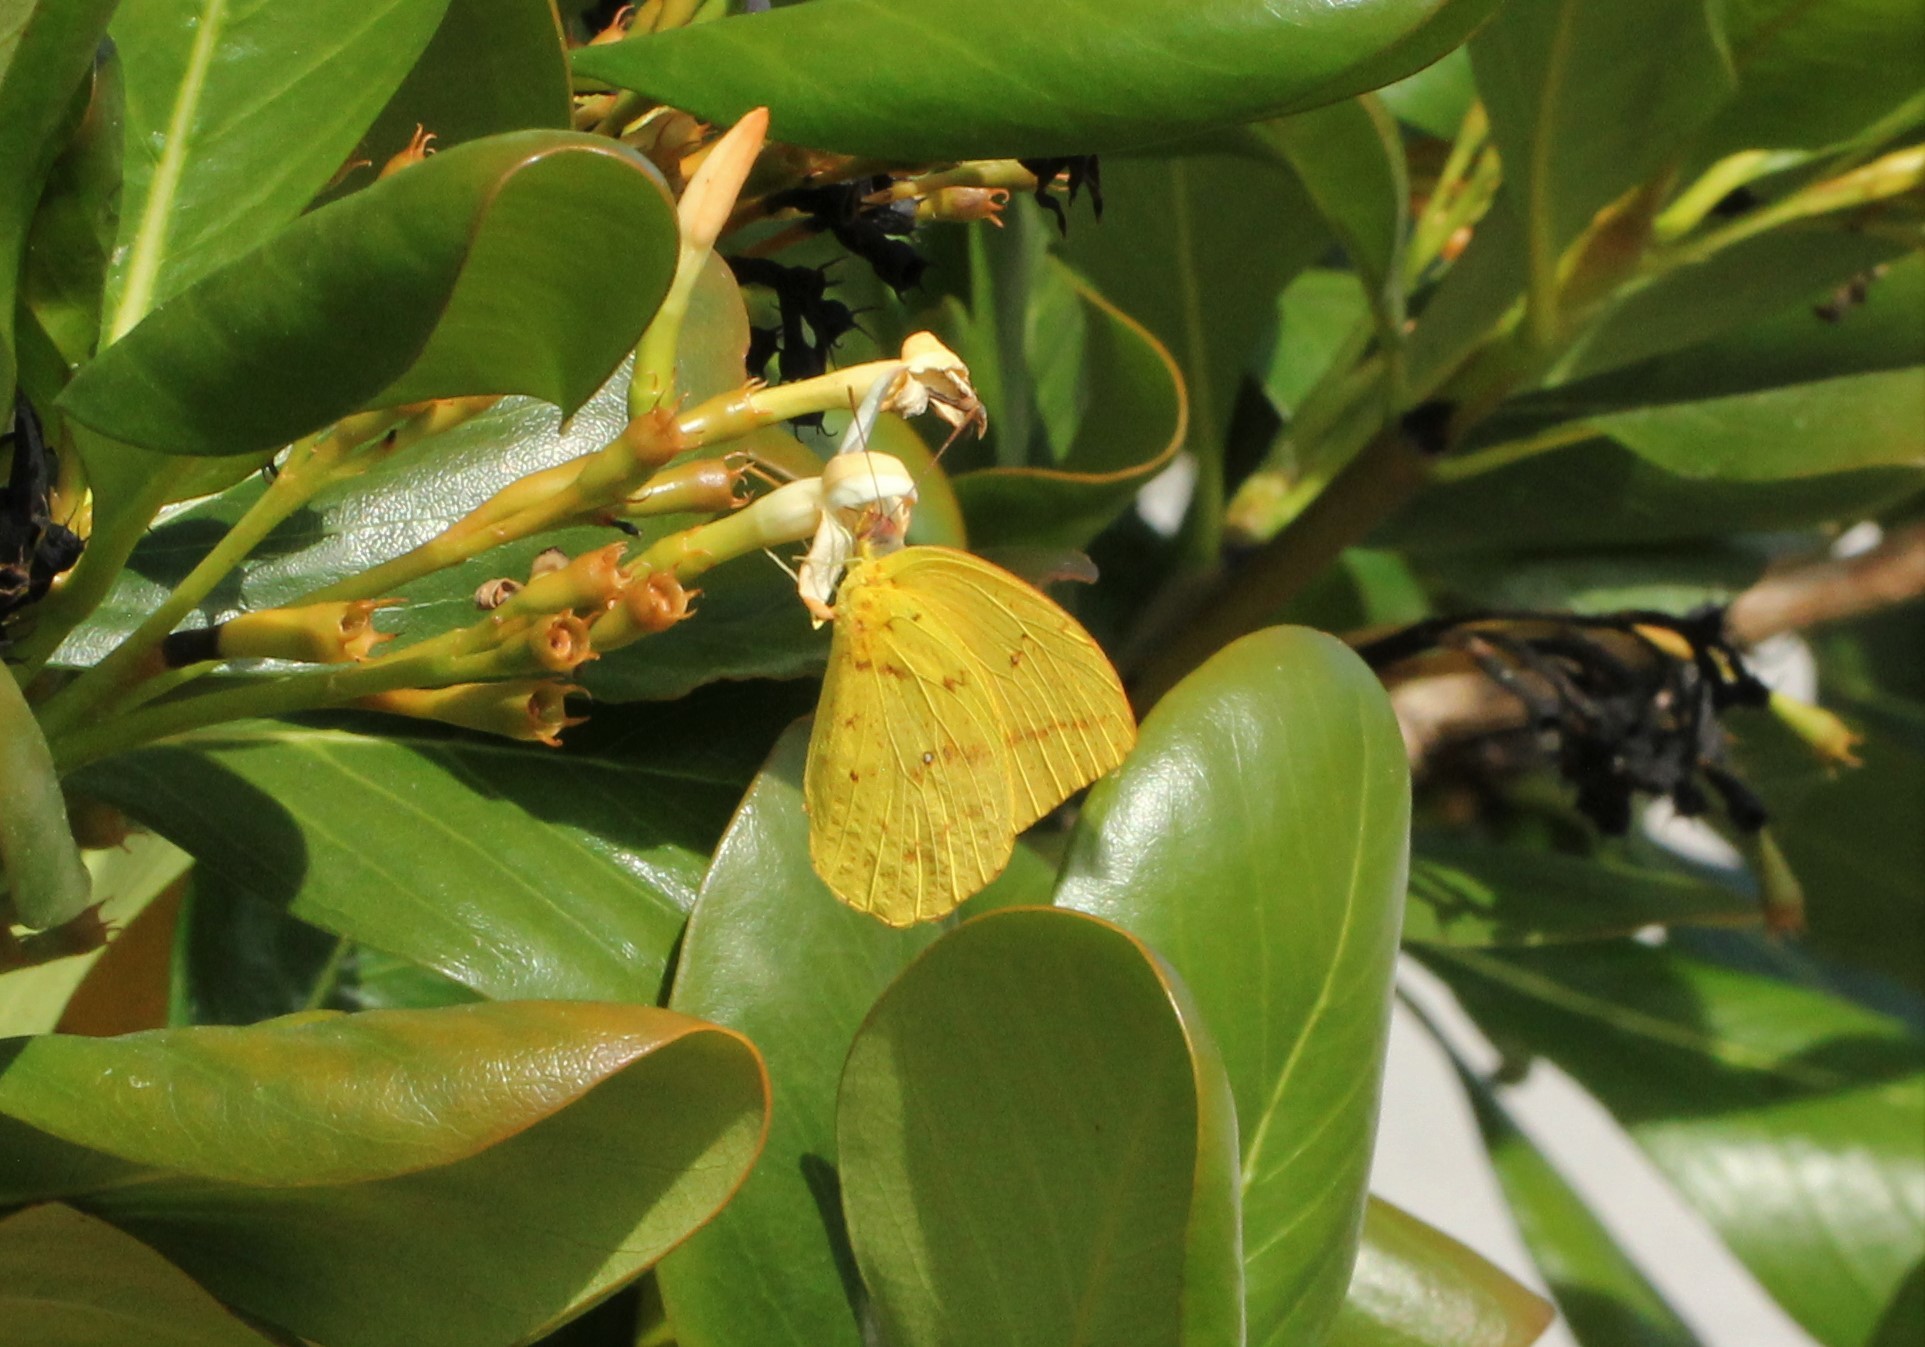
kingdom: Animalia
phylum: Arthropoda
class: Insecta
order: Lepidoptera
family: Pieridae
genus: Phoebis
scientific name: Phoebis agarithe
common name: Large orange sulphur
